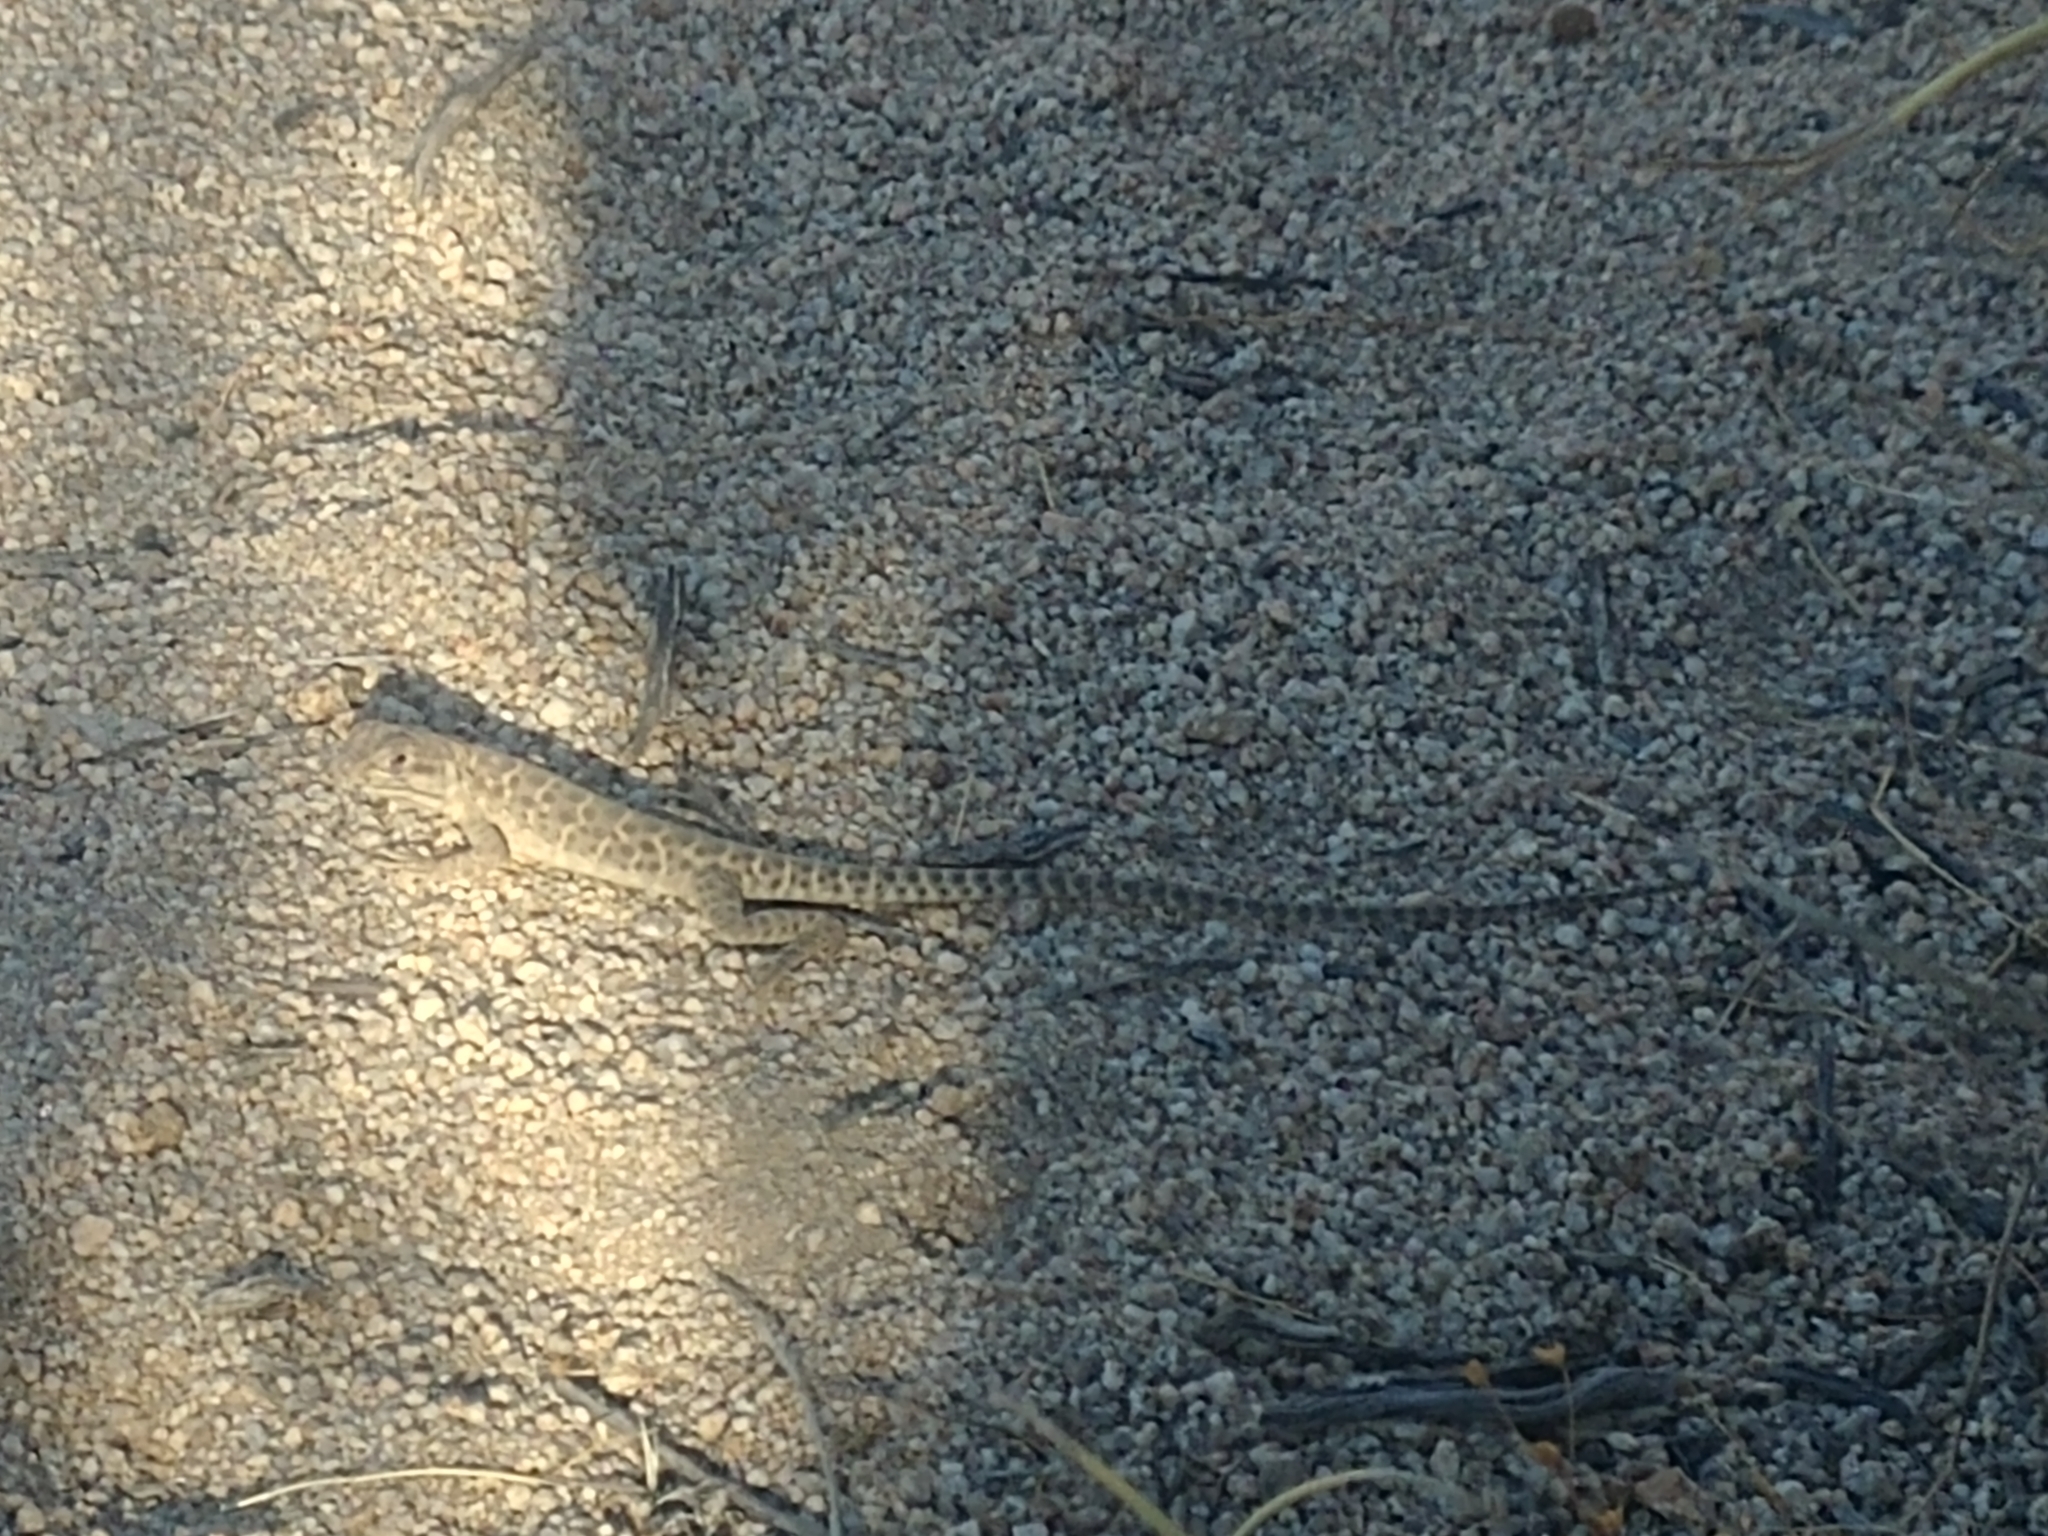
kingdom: Animalia
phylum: Chordata
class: Squamata
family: Crotaphytidae
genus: Gambelia
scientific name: Gambelia wislizenii
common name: Longnose leopard lizard
